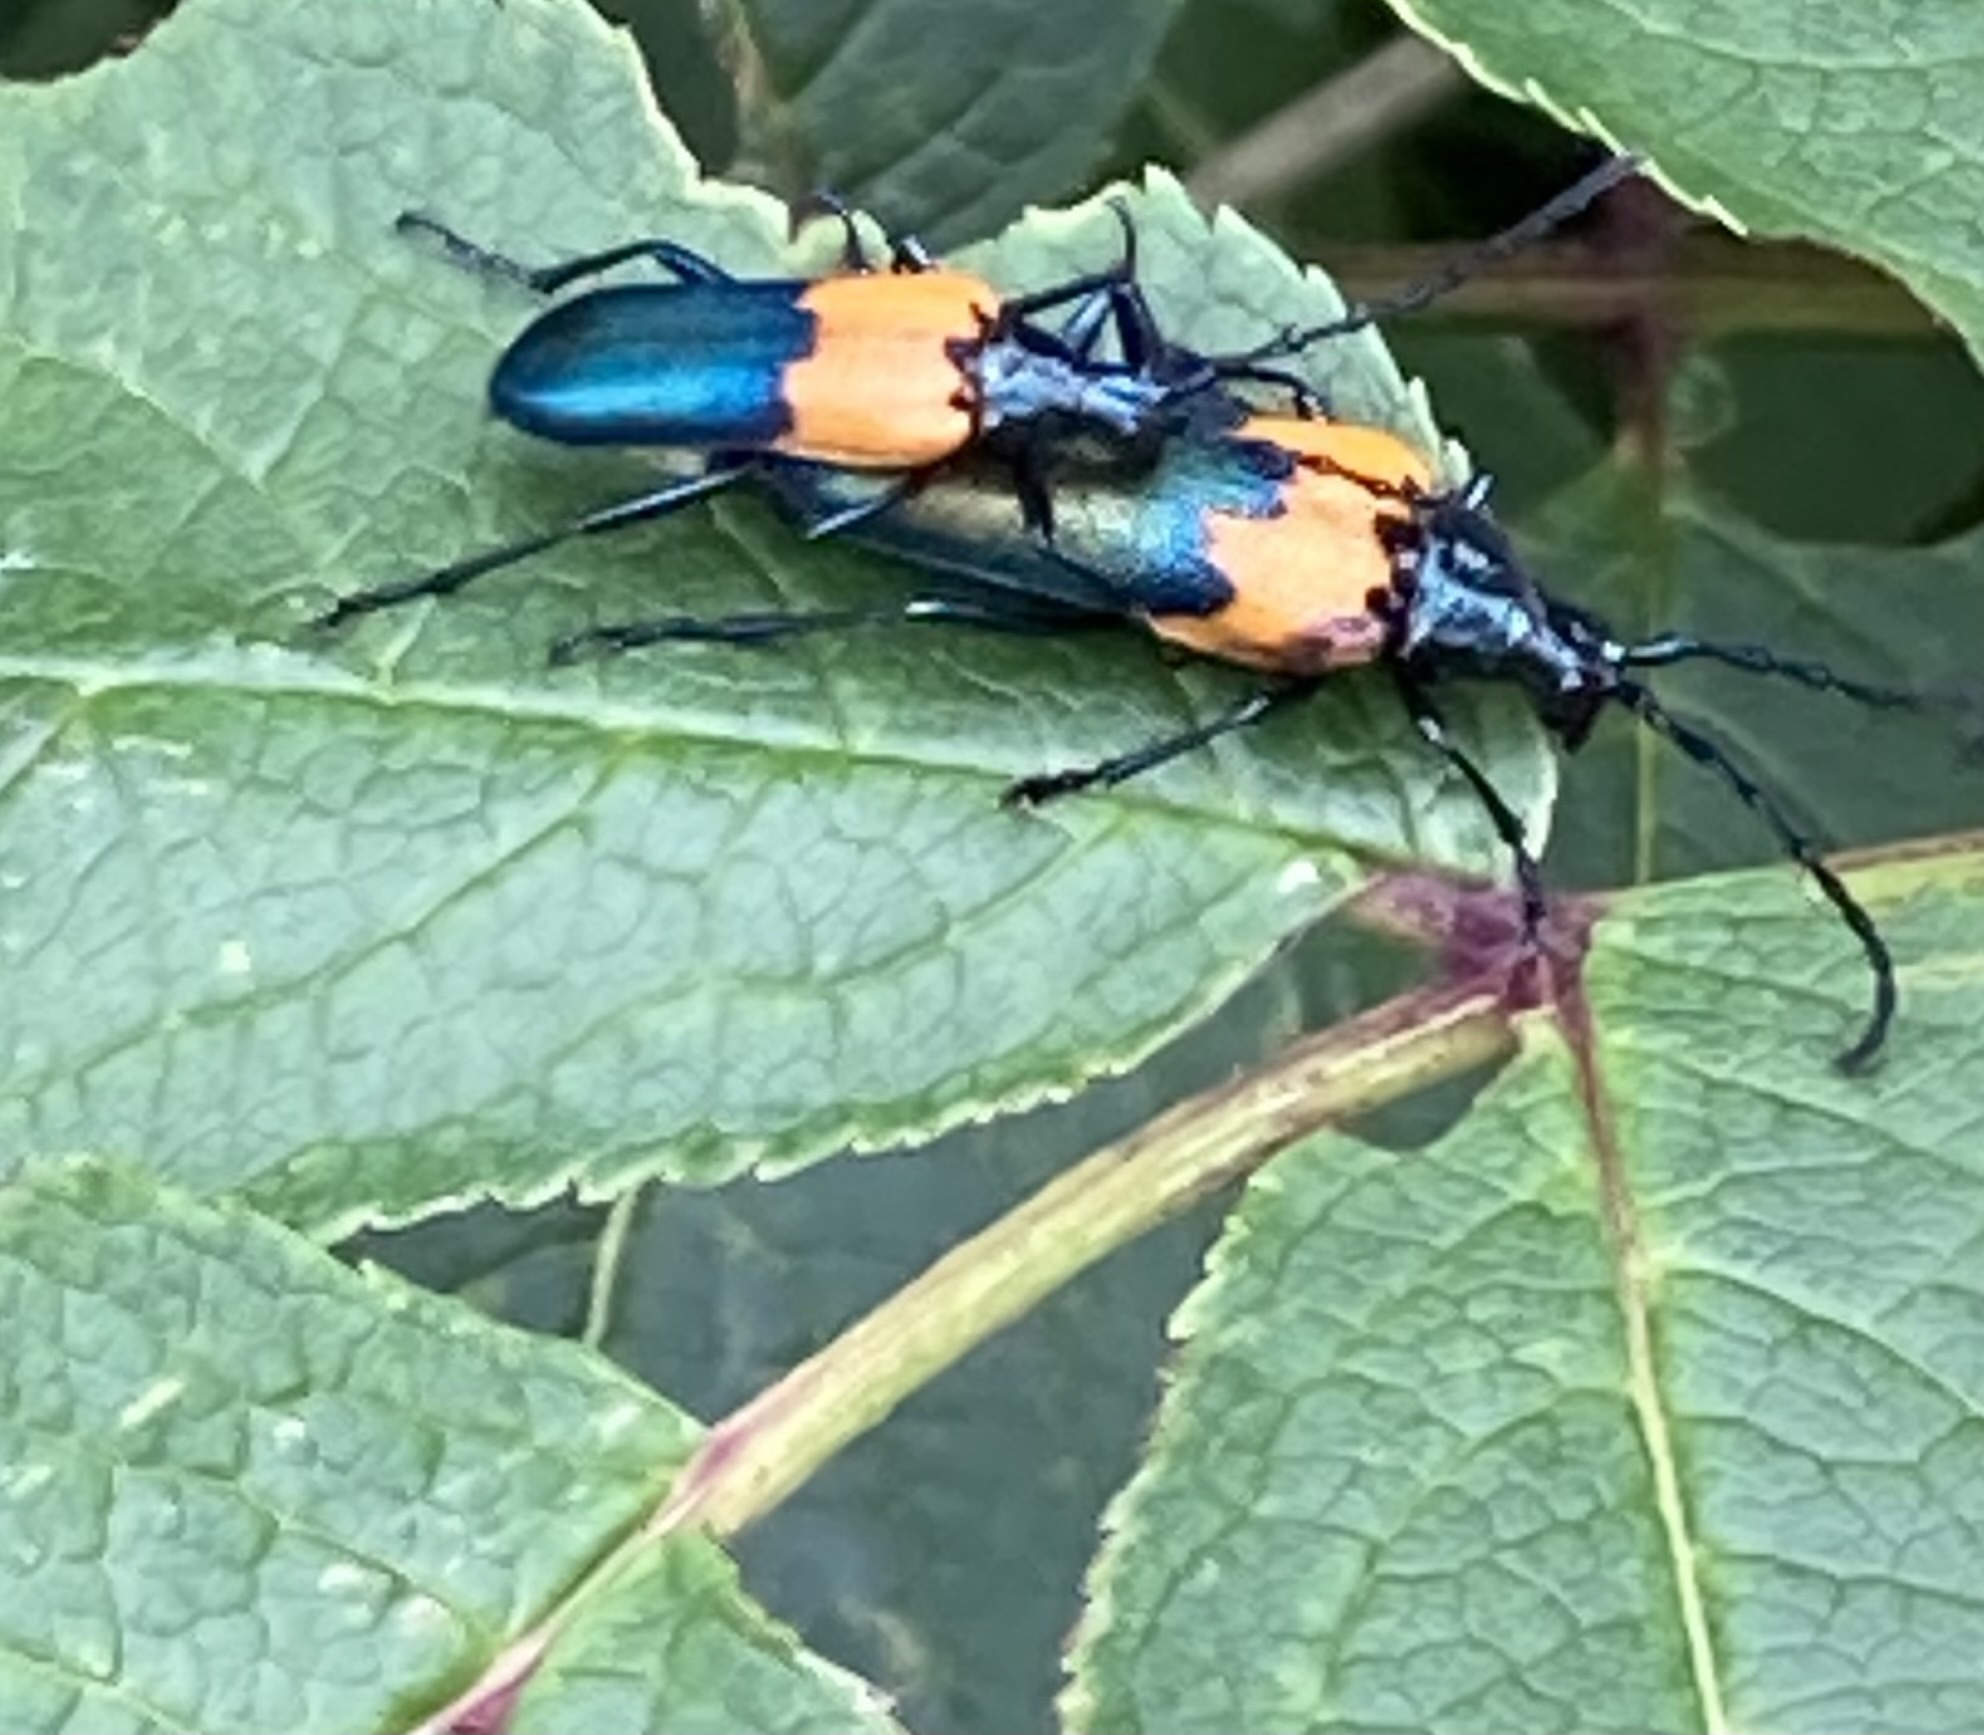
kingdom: Animalia
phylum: Arthropoda
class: Insecta
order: Coleoptera
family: Cerambycidae
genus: Desmocerus
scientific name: Desmocerus palliatus
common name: Eastern elderberry borer
